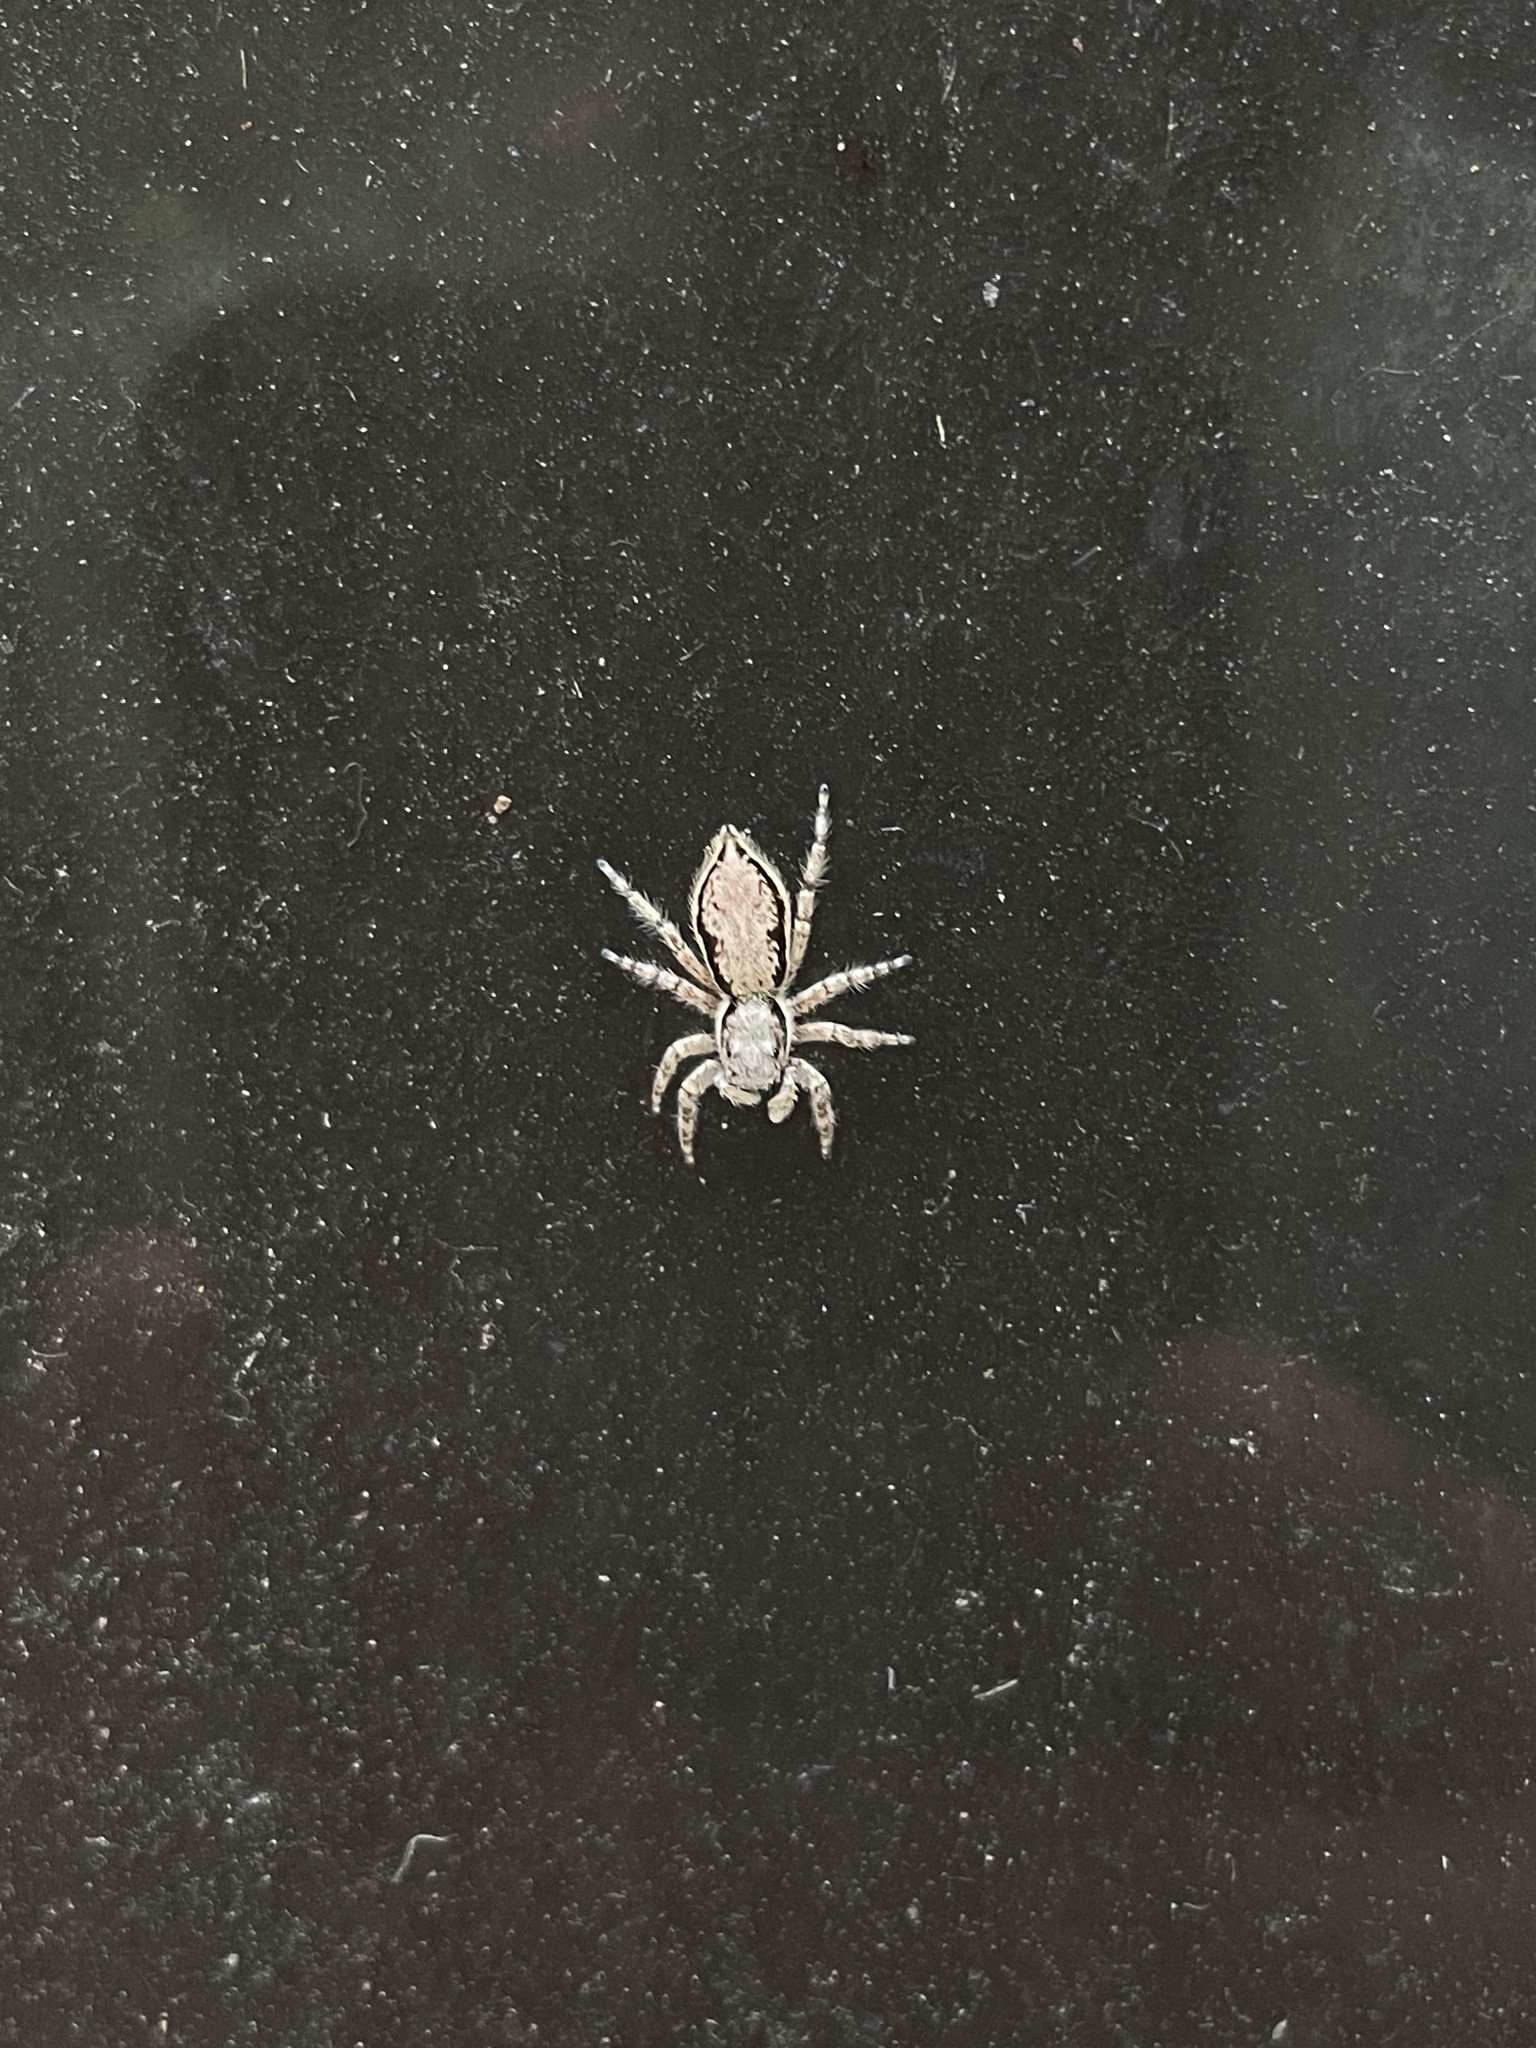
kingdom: Animalia
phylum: Arthropoda
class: Arachnida
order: Araneae
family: Salticidae
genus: Menemerus
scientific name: Menemerus bivittatus
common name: Gray wall jumper
